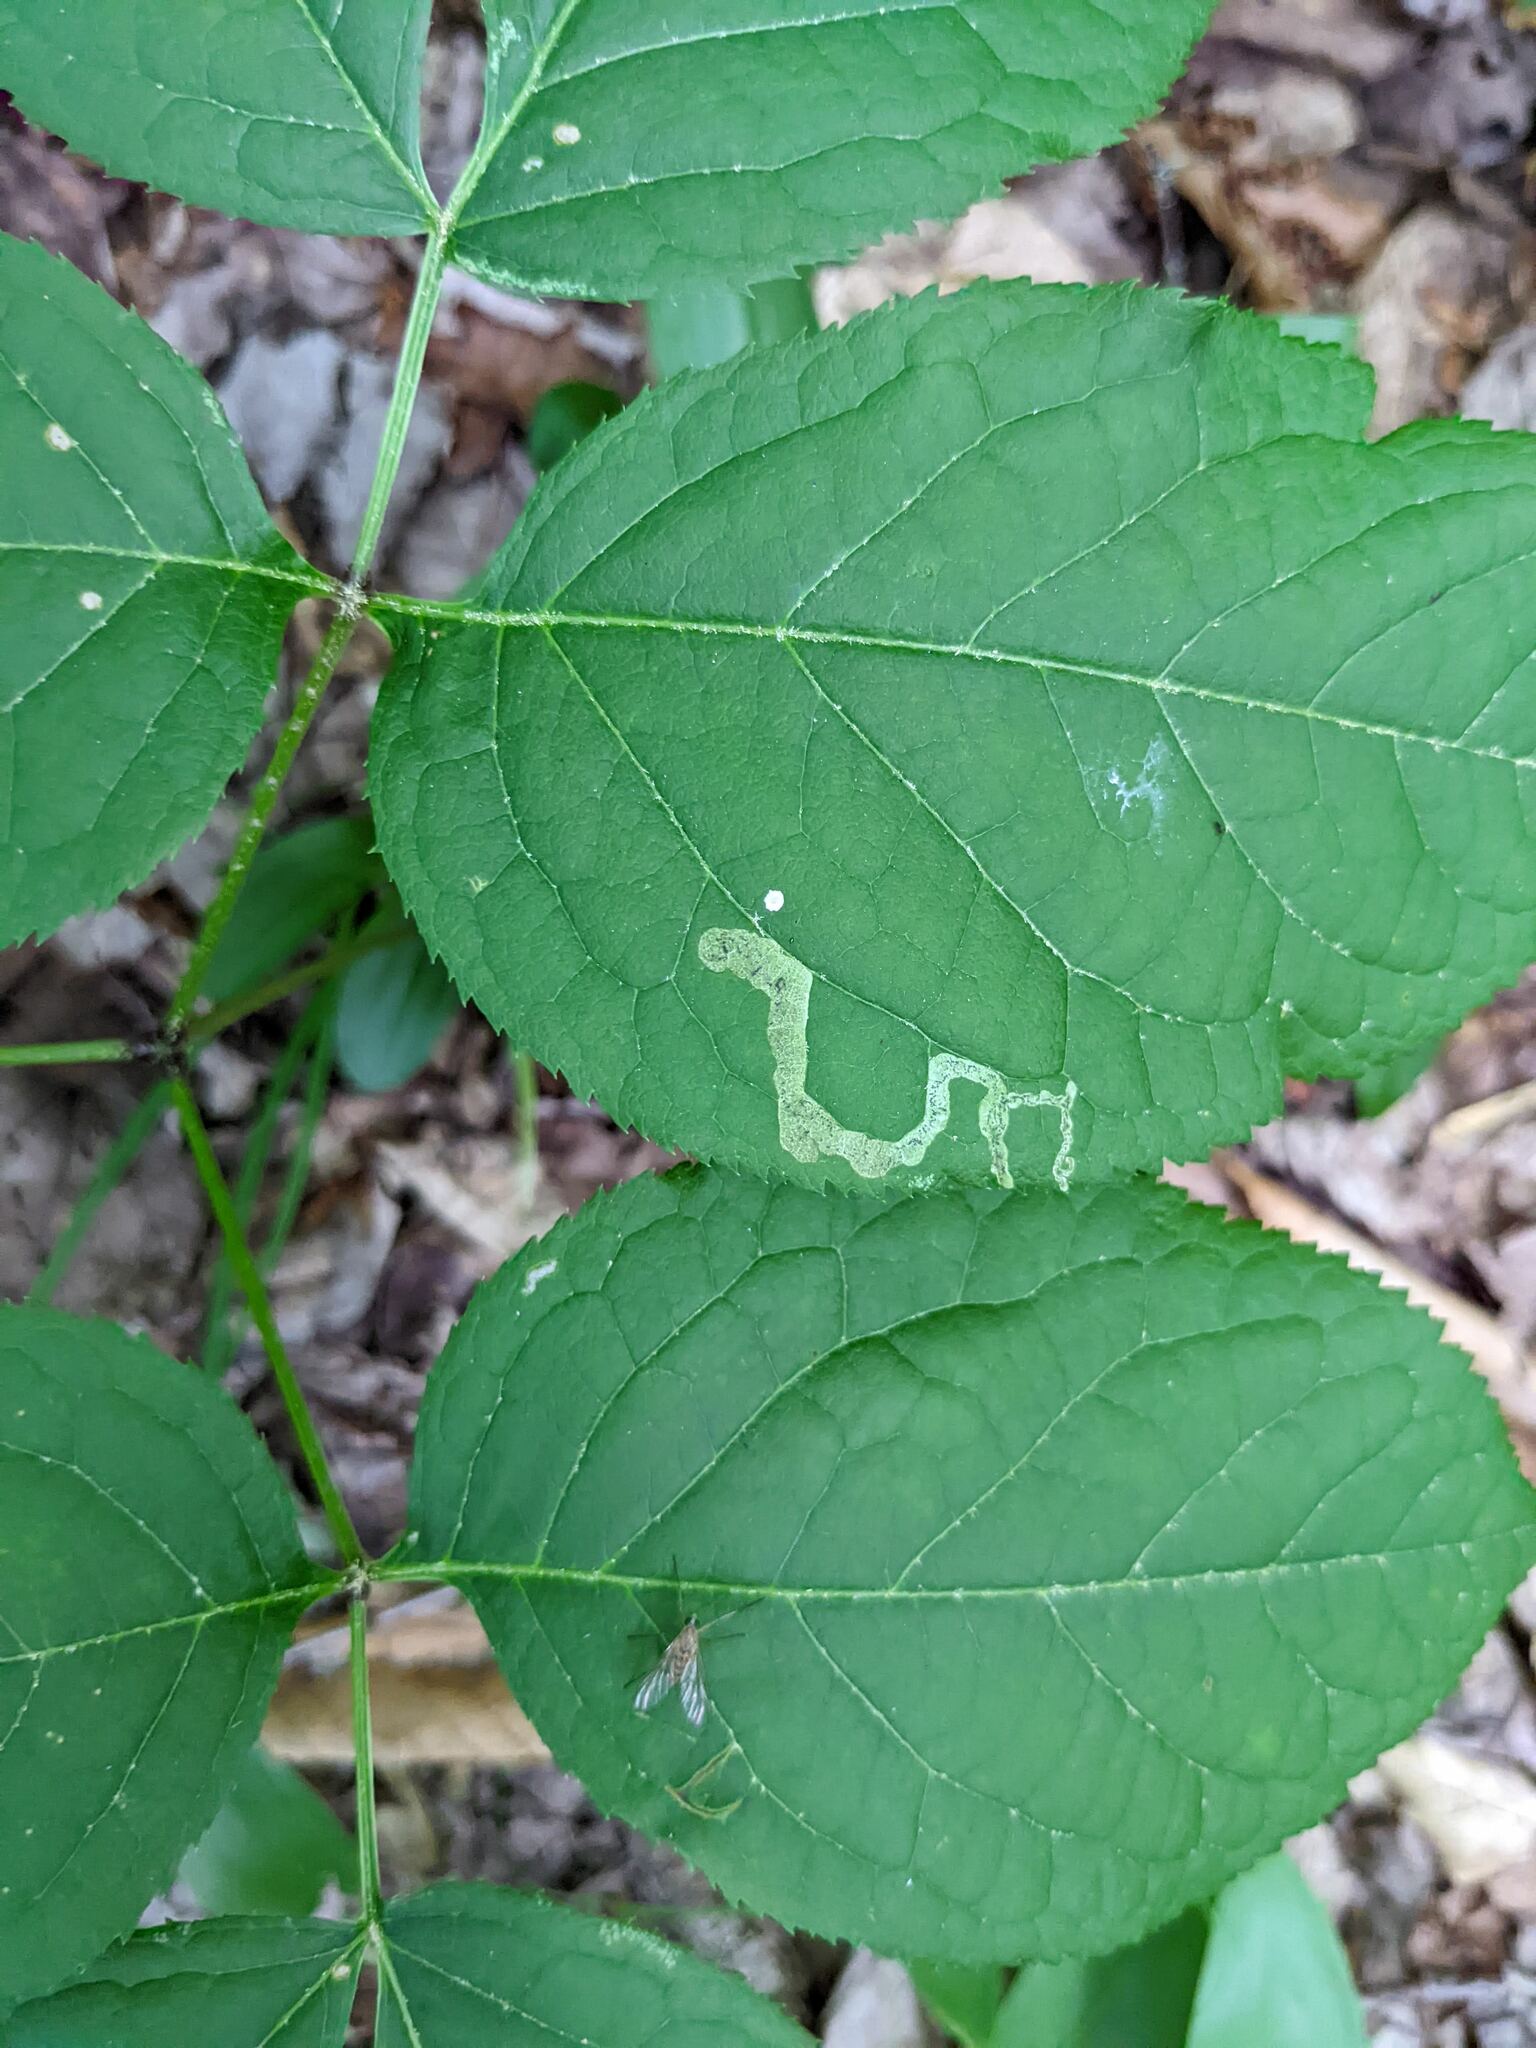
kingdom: Animalia
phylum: Arthropoda
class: Insecta
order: Diptera
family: Agromyzidae
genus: Phytomyza
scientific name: Phytomyza aralivora
